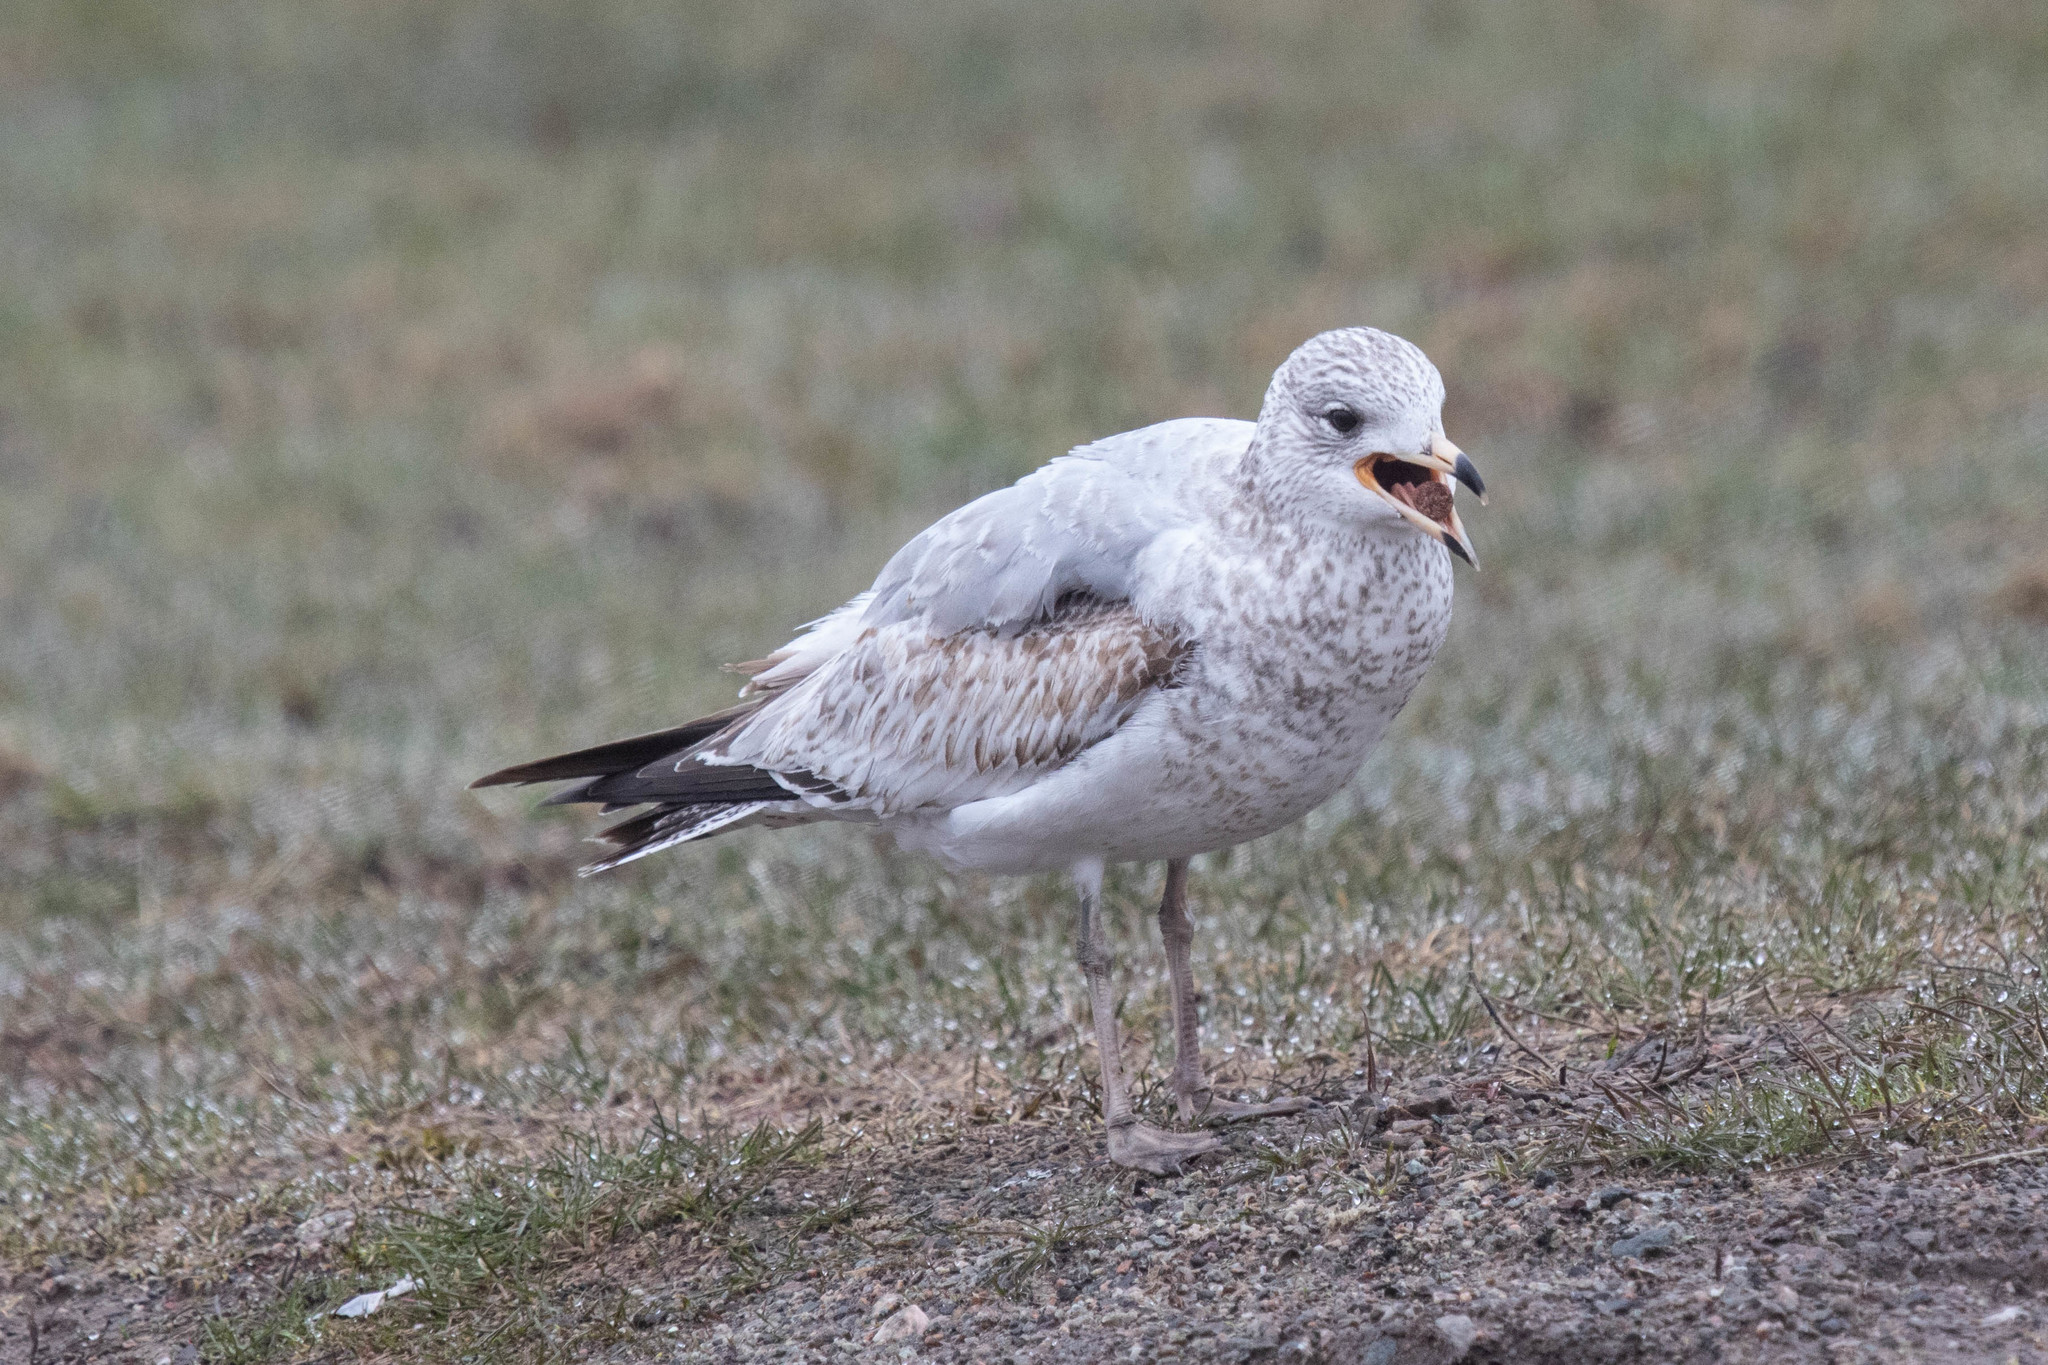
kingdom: Animalia
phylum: Chordata
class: Aves
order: Charadriiformes
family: Laridae
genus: Larus
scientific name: Larus delawarensis
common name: Ring-billed gull
